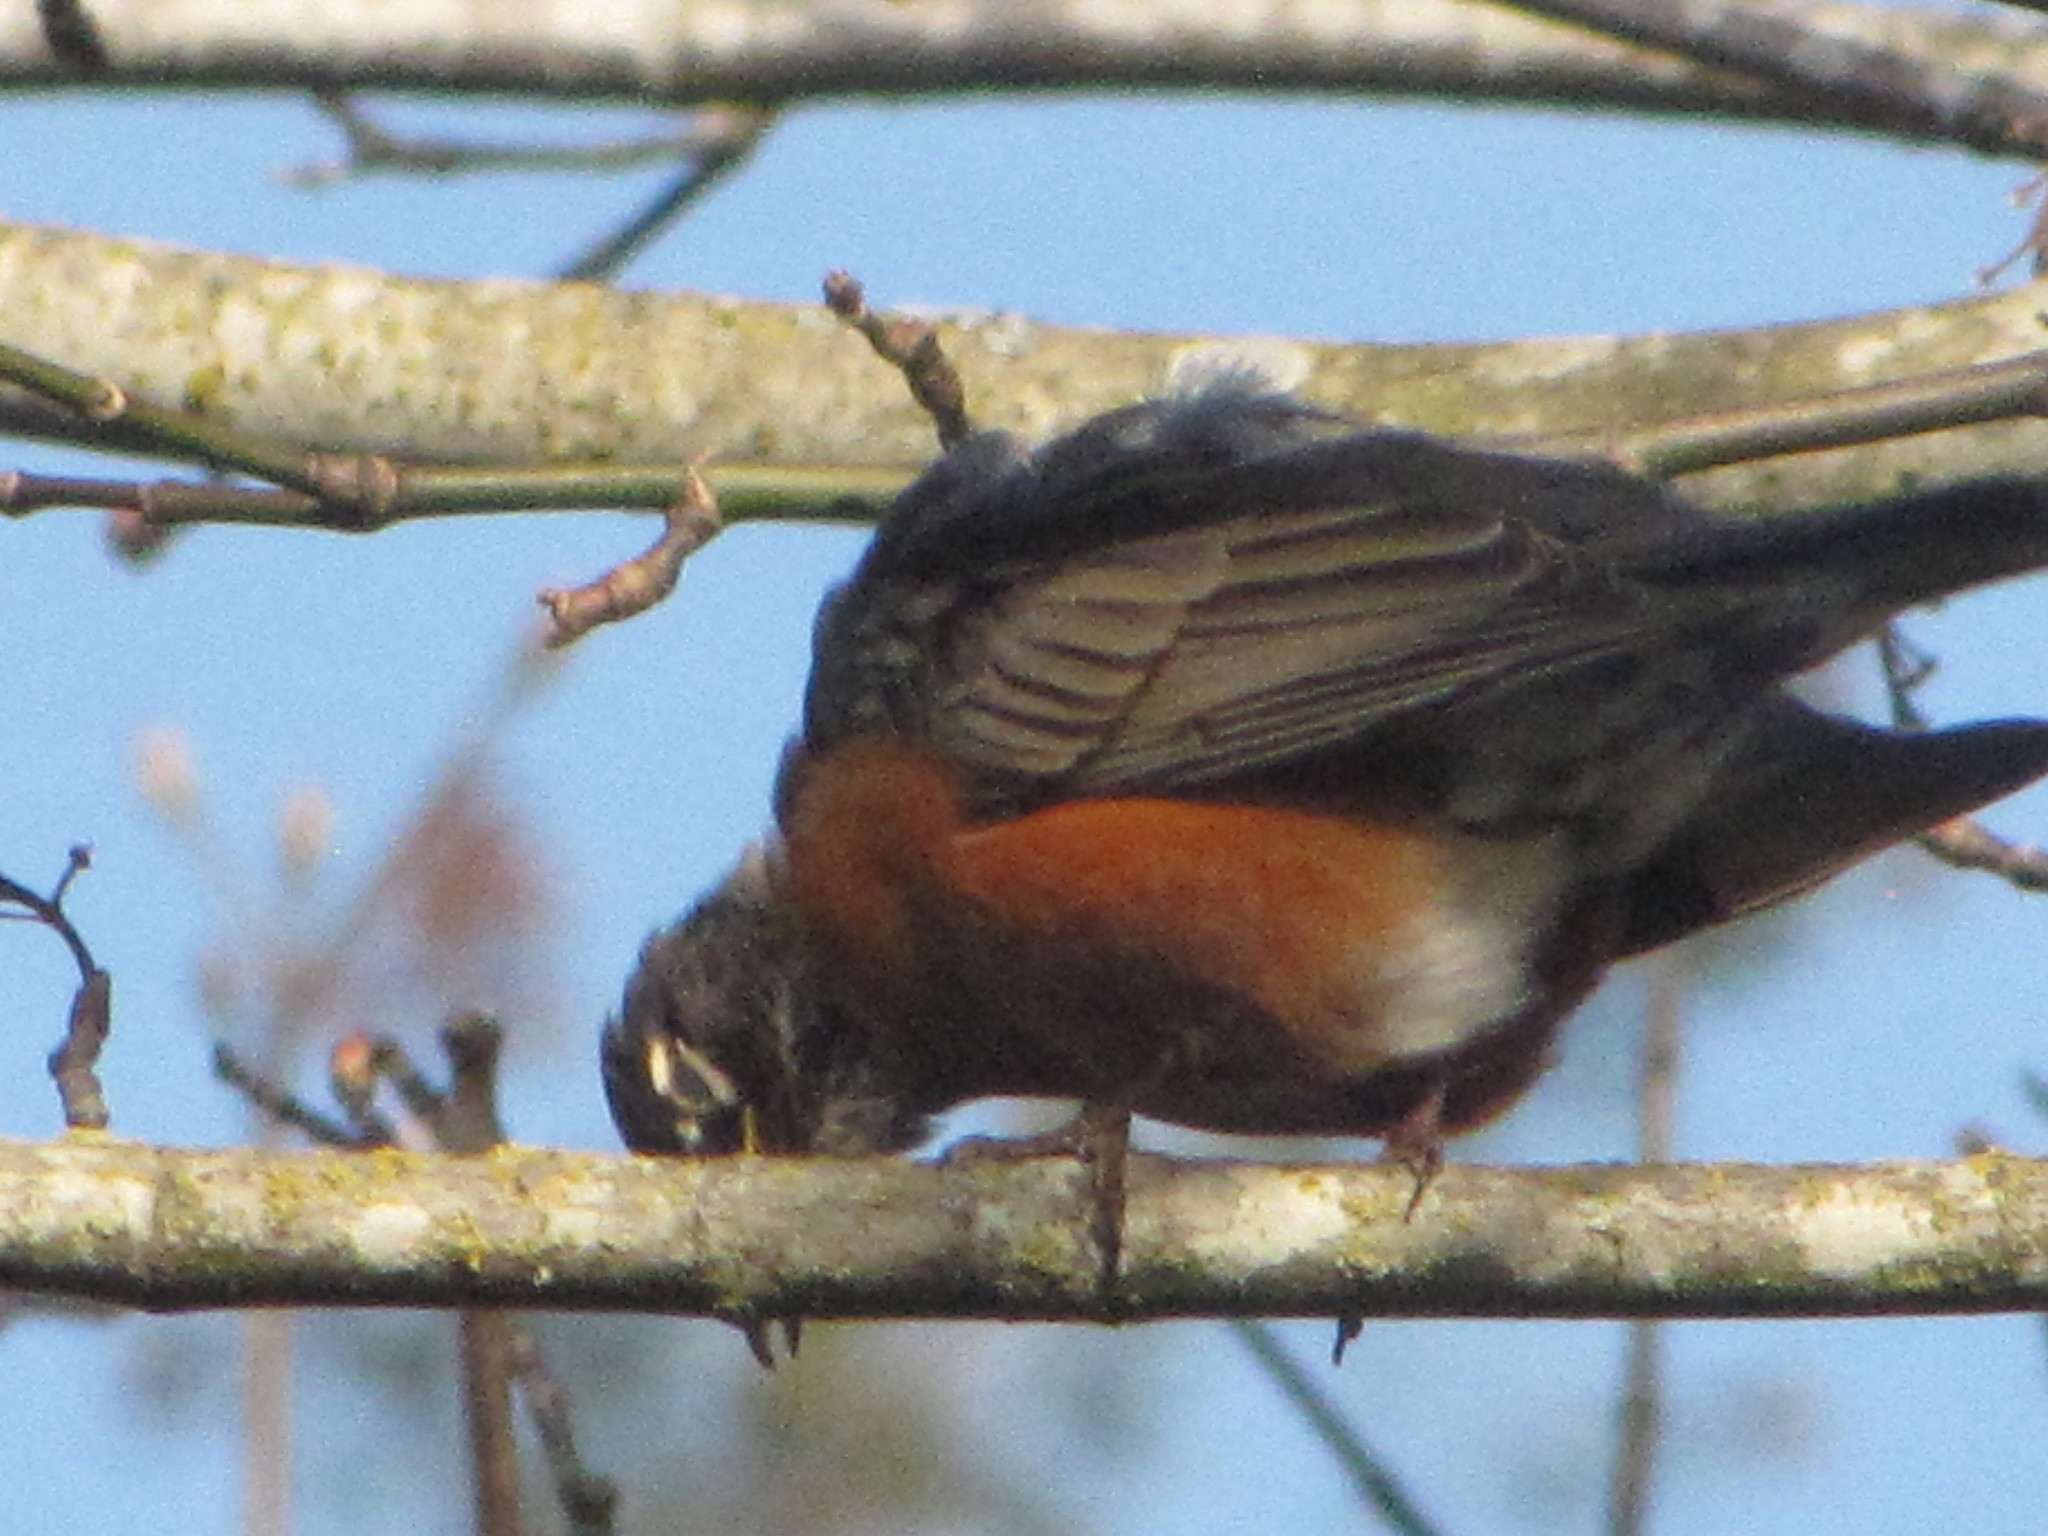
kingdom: Animalia
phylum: Chordata
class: Aves
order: Passeriformes
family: Turdidae
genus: Turdus
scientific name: Turdus migratorius
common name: American robin
